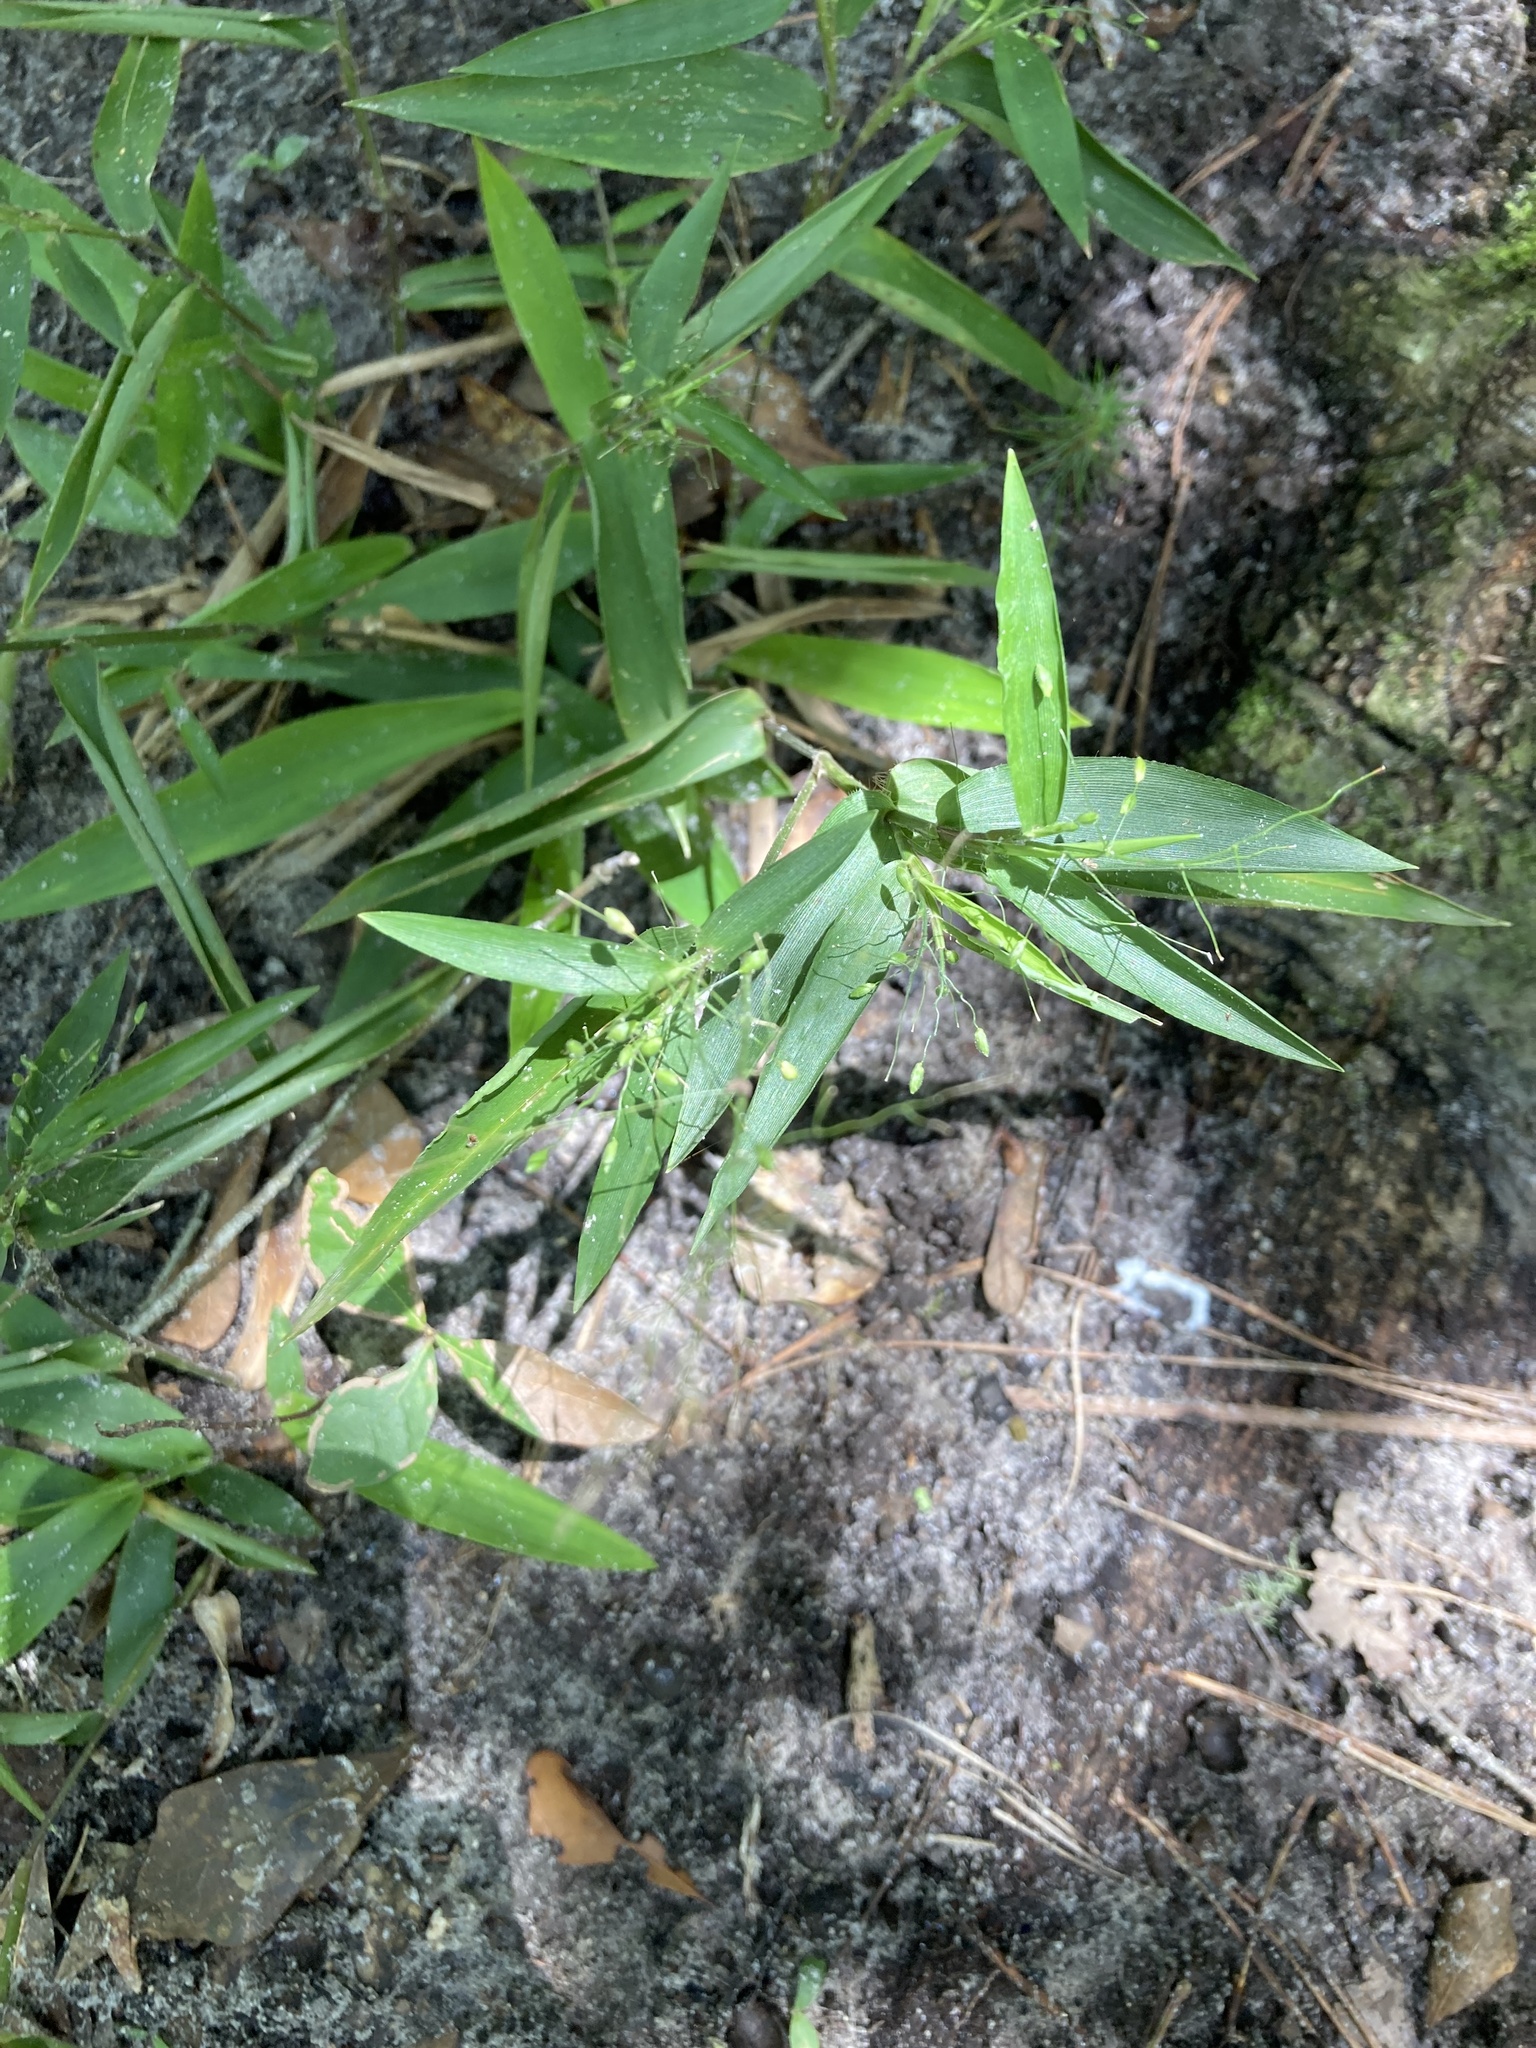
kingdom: Plantae
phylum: Tracheophyta
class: Liliopsida
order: Poales
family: Poaceae
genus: Dichanthelium
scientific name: Dichanthelium commutatum
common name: Variable witchgrass
